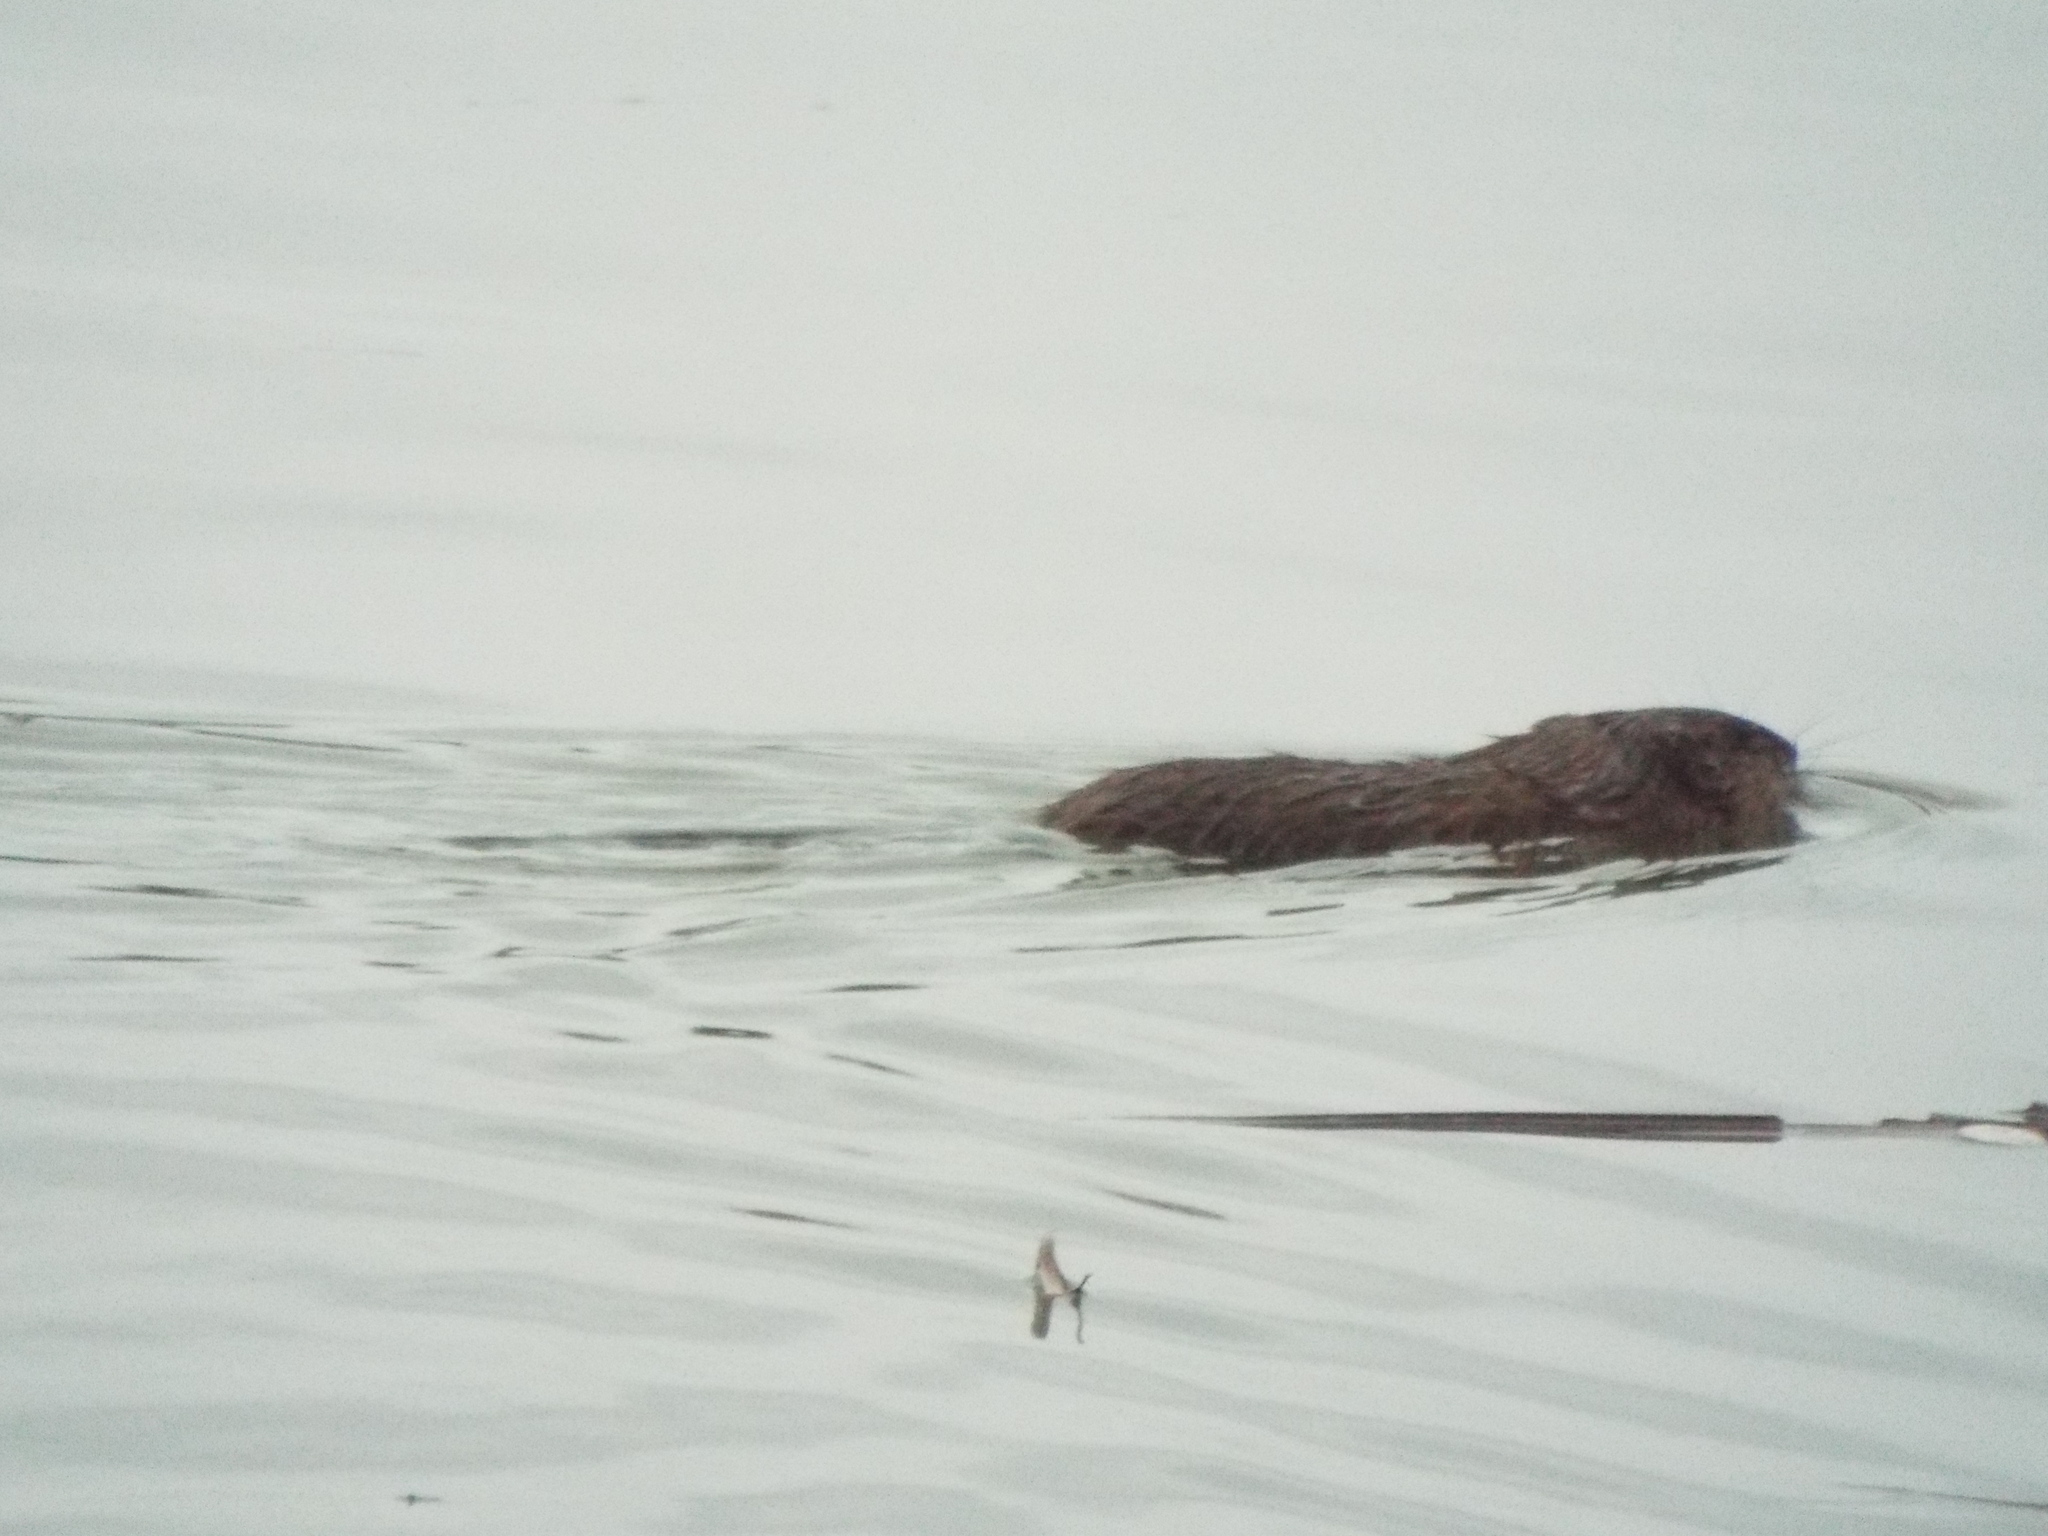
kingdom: Animalia
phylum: Chordata
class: Mammalia
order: Rodentia
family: Cricetidae
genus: Ondatra
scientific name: Ondatra zibethicus
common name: Muskrat
